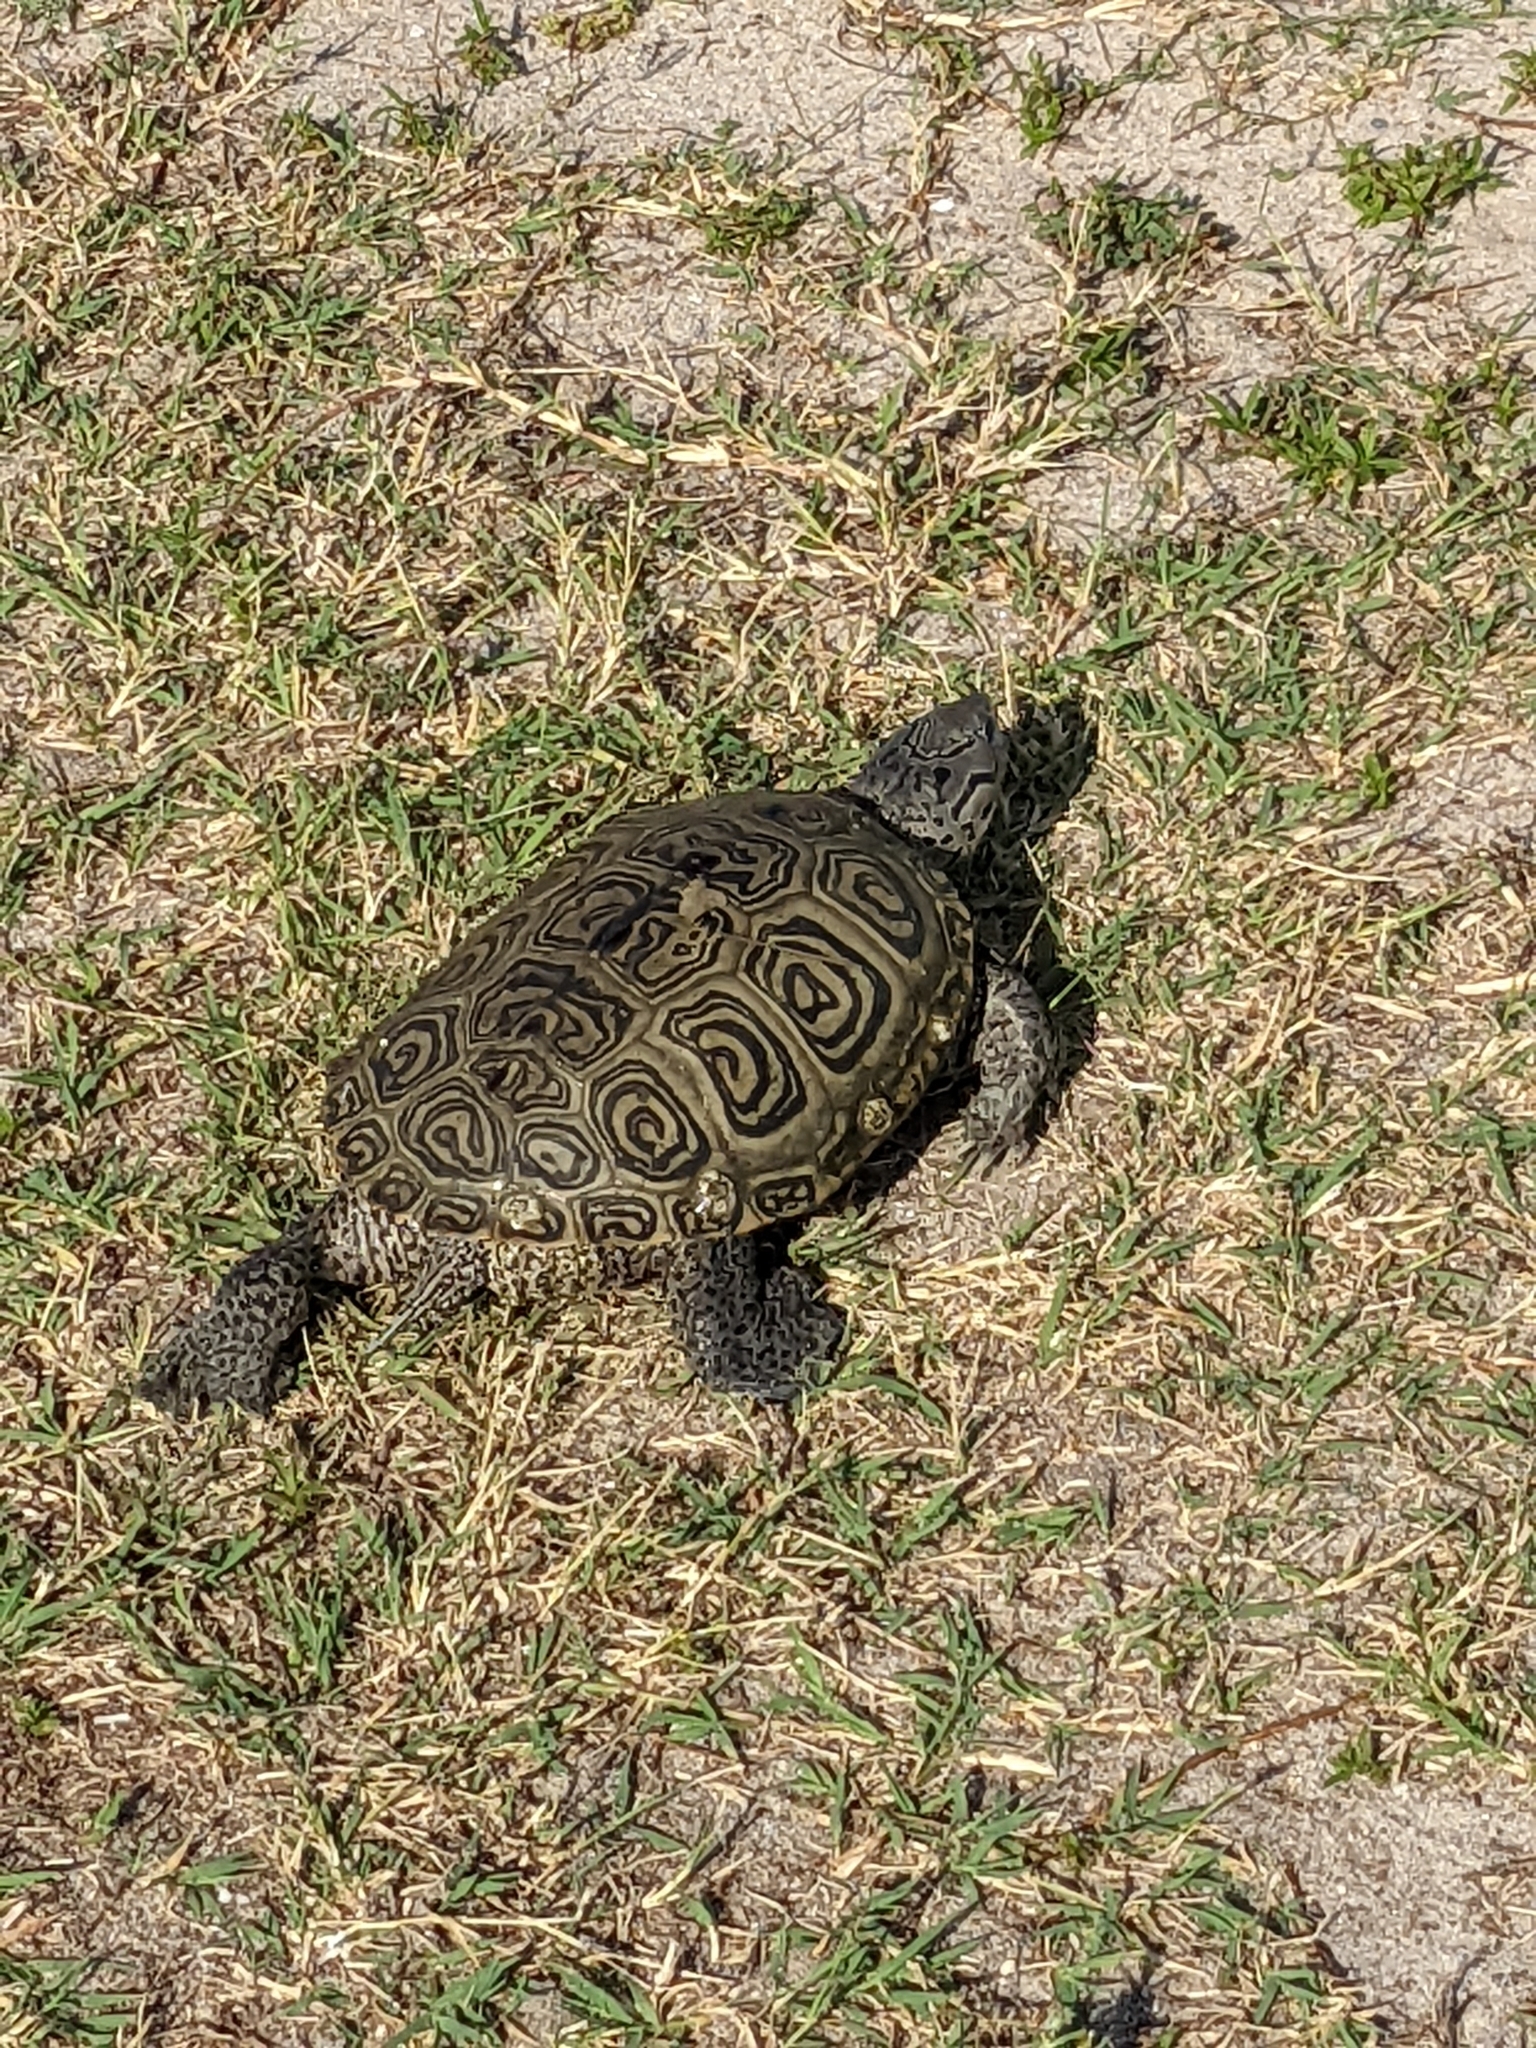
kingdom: Animalia
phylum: Chordata
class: Testudines
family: Emydidae
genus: Malaclemys
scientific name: Malaclemys terrapin
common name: Diamondback terrapin
